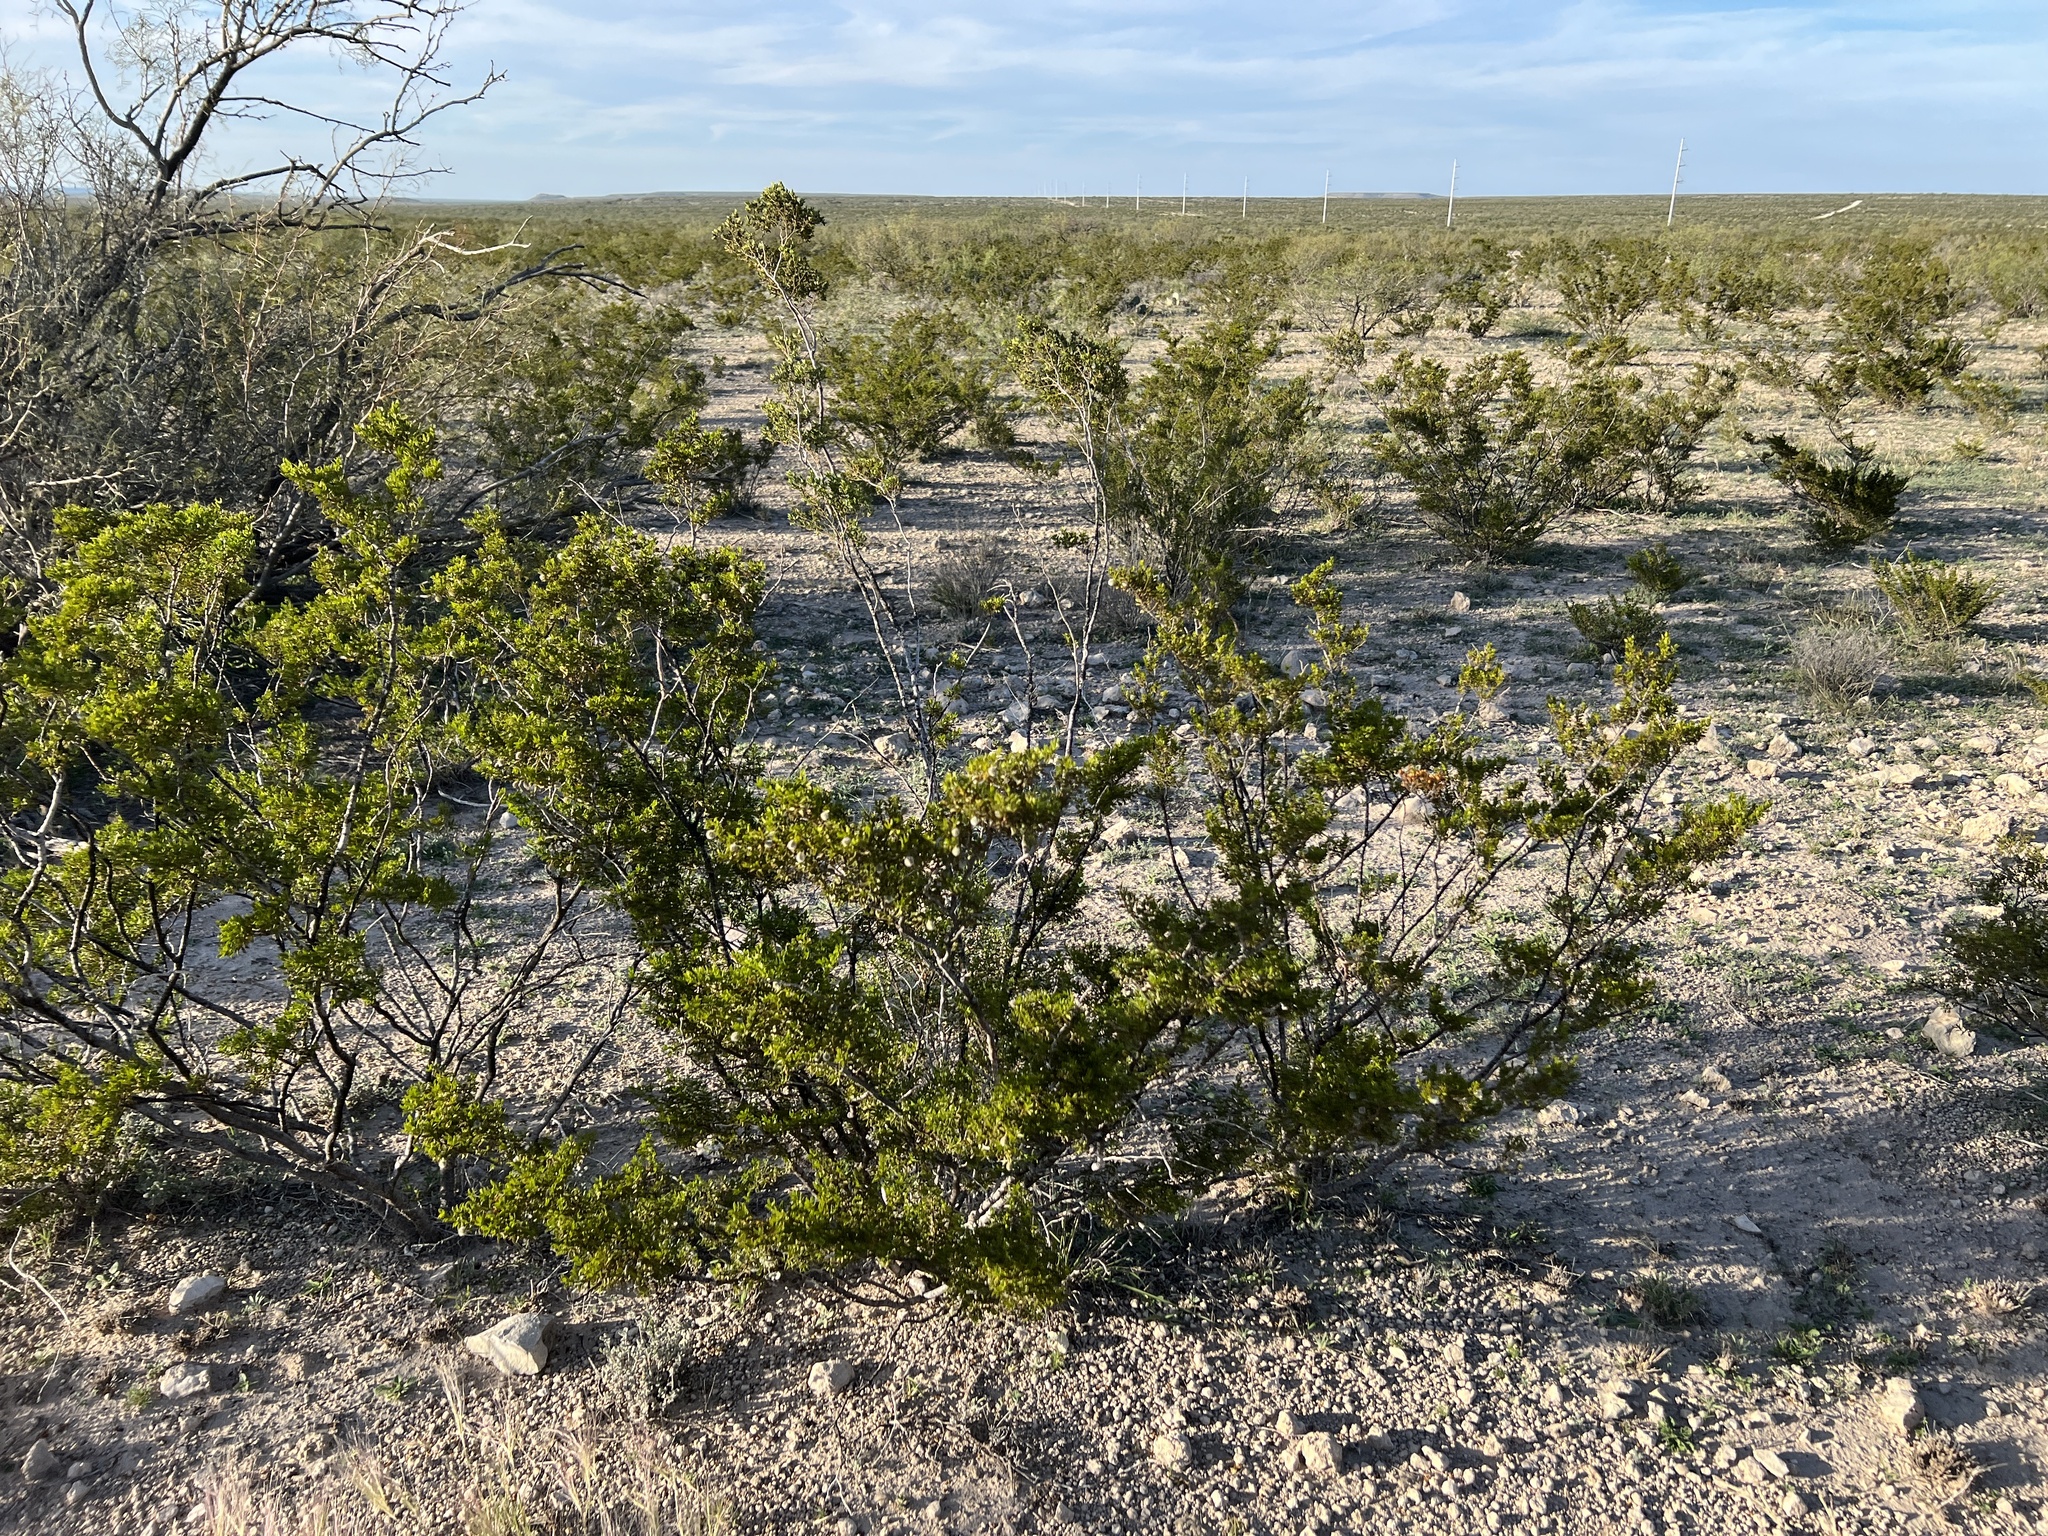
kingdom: Plantae
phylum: Tracheophyta
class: Magnoliopsida
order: Zygophyllales
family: Zygophyllaceae
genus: Larrea
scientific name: Larrea tridentata
